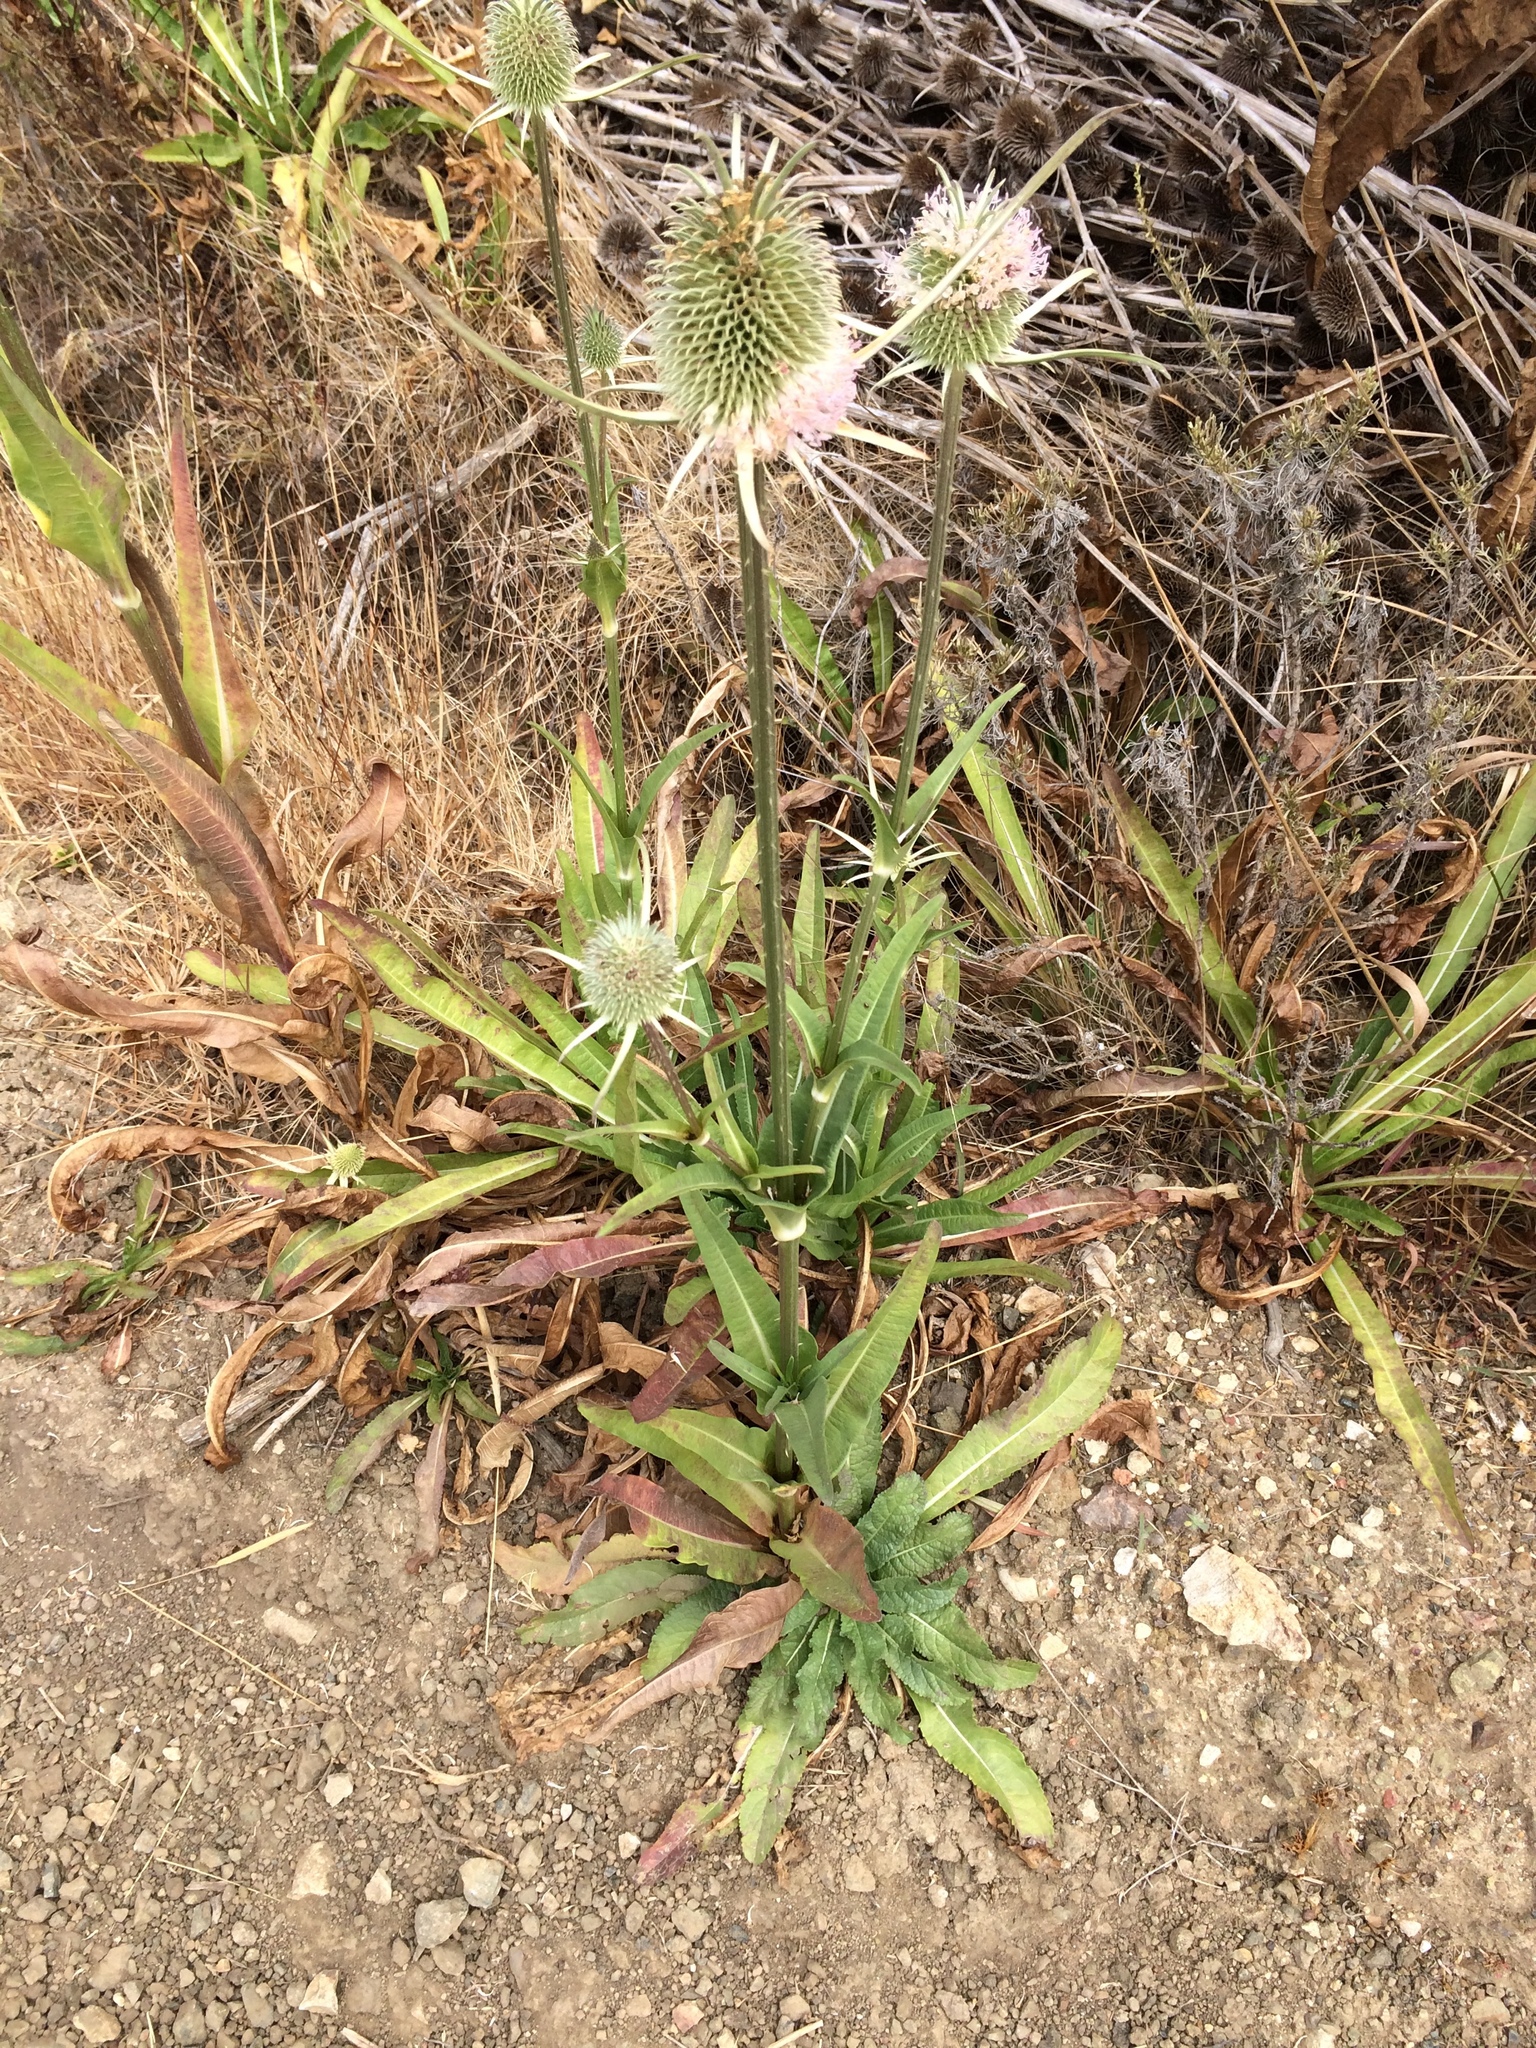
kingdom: Plantae
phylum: Tracheophyta
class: Magnoliopsida
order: Dipsacales
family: Caprifoliaceae
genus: Dipsacus
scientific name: Dipsacus sativus
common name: Fuller's teasel
